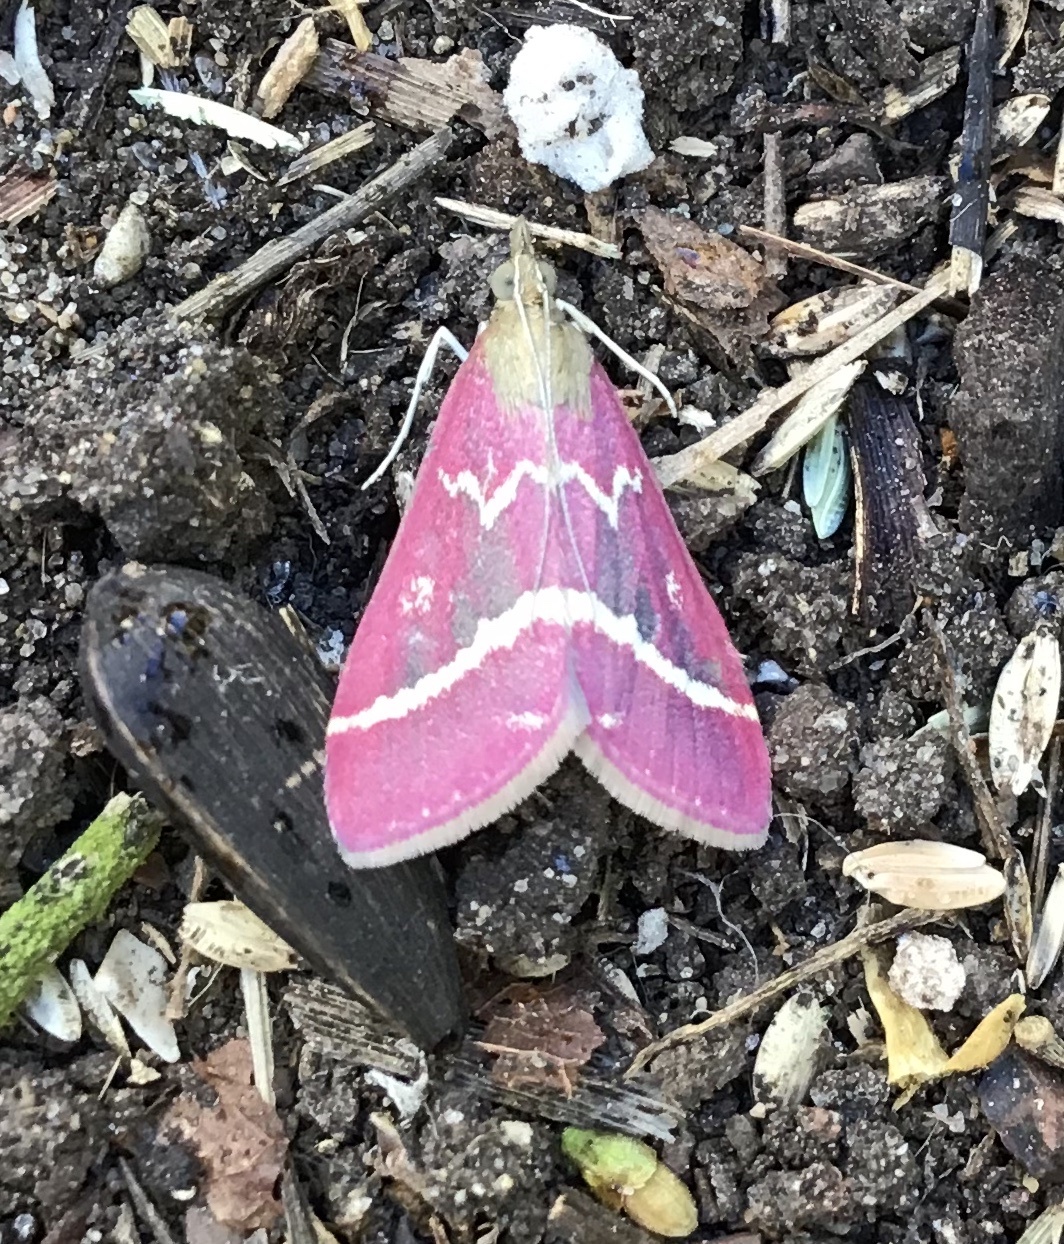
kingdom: Animalia
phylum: Arthropoda
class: Insecta
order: Lepidoptera
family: Crambidae
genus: Pyrausta
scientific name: Pyrausta volupialis
